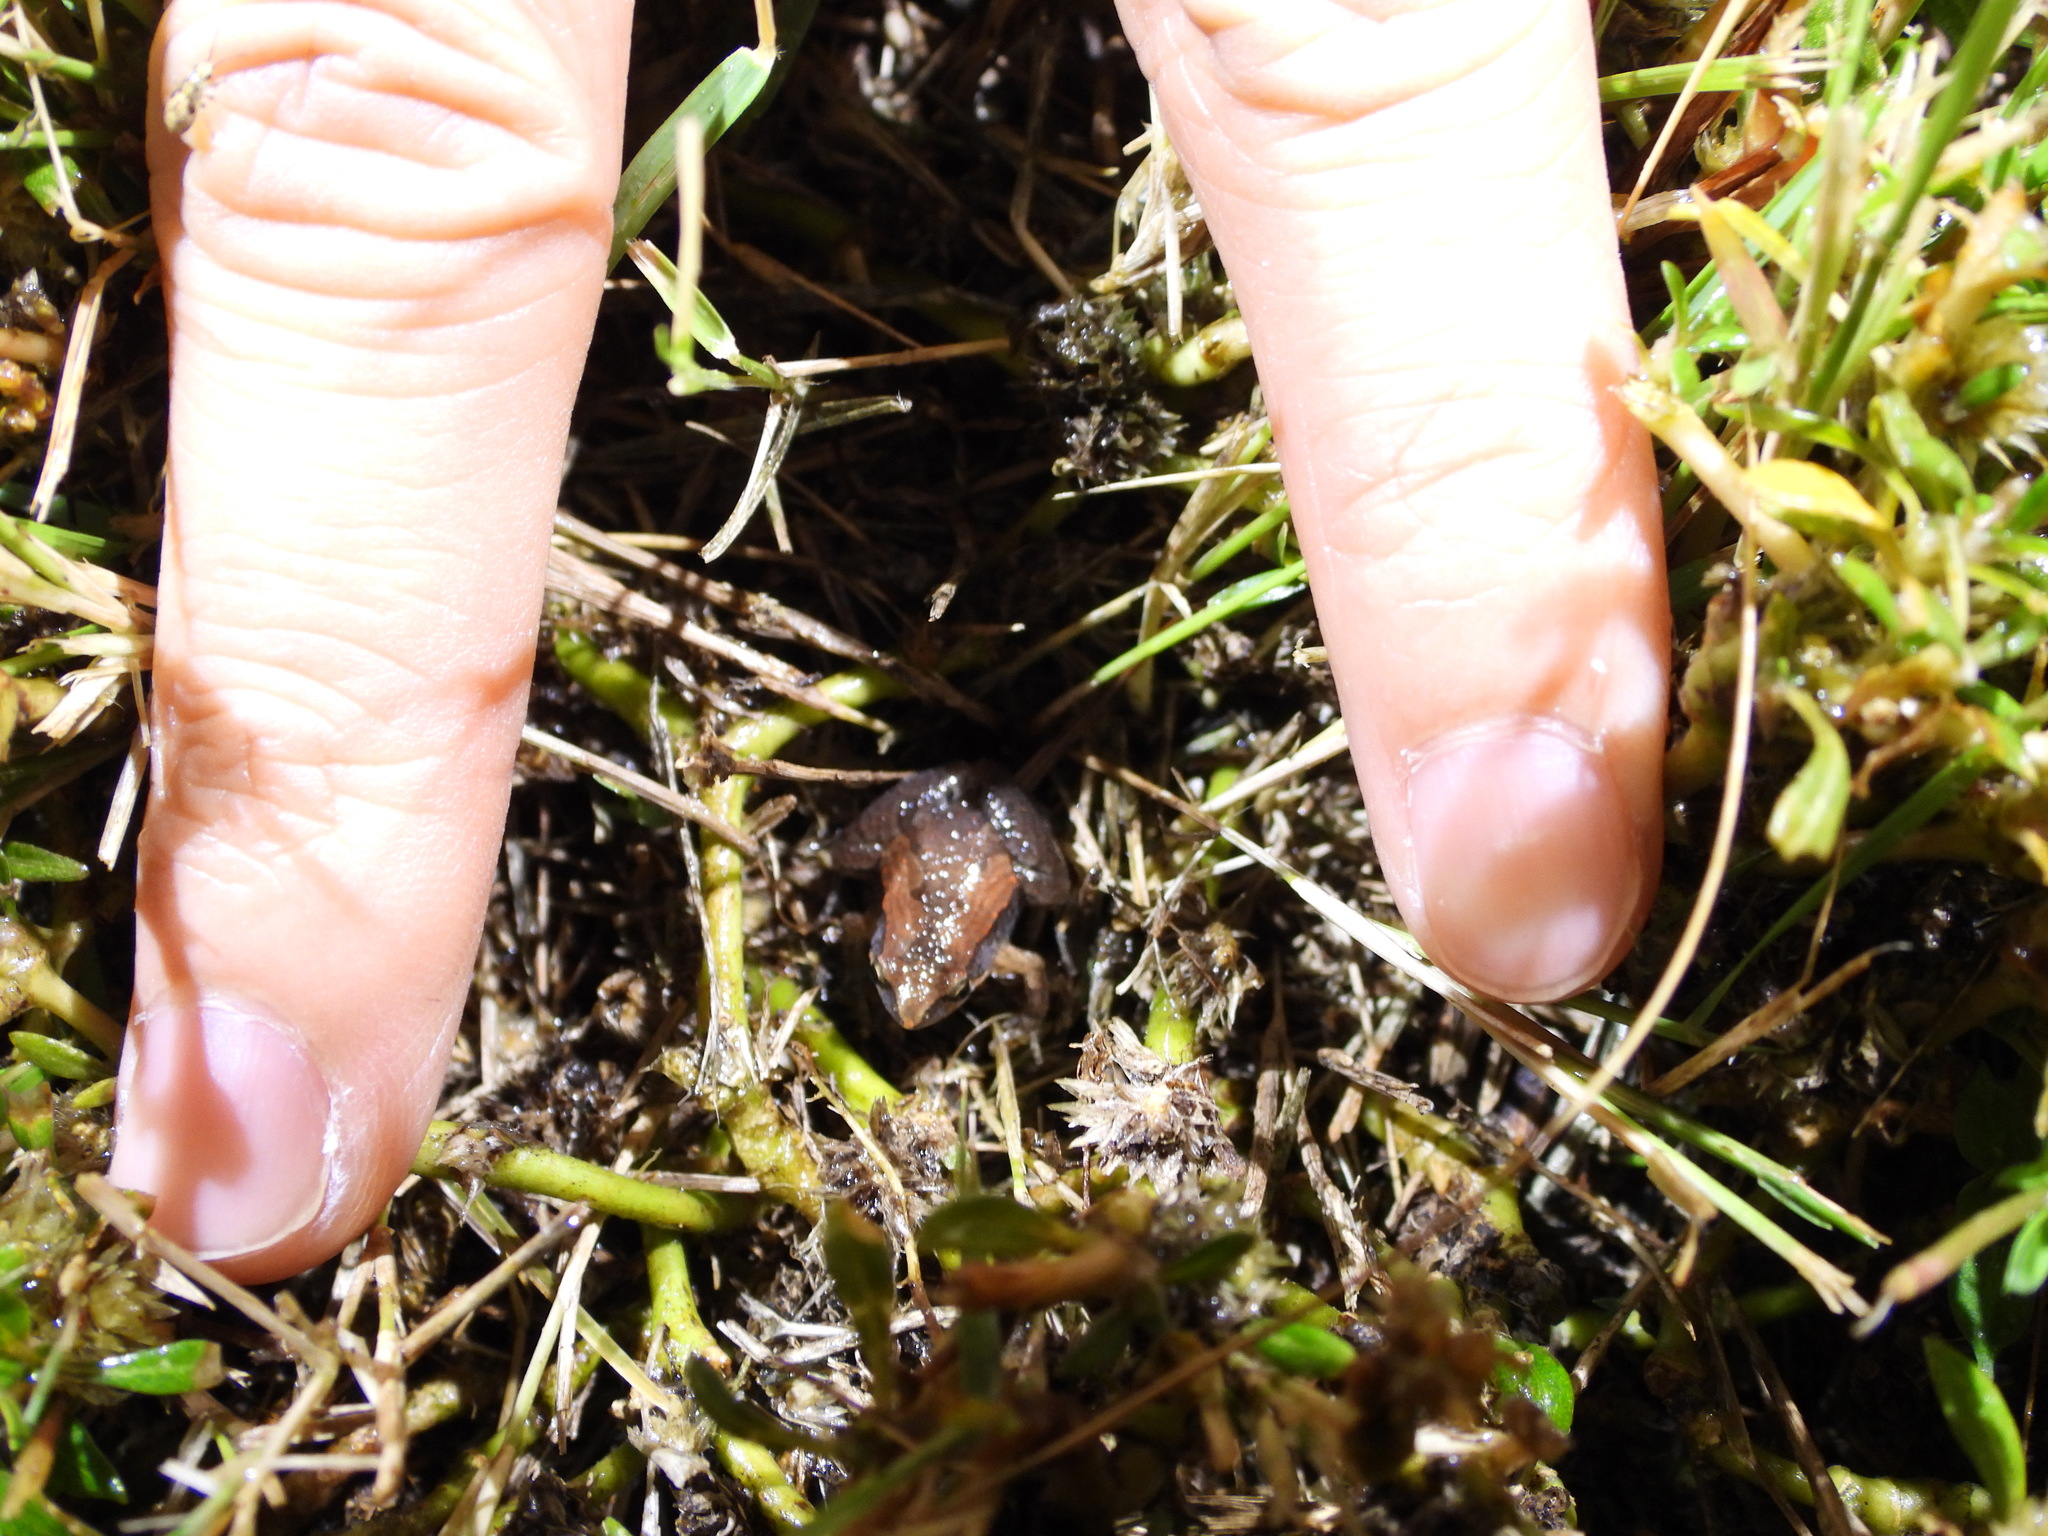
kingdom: Animalia
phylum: Chordata
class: Amphibia
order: Anura
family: Microhylidae
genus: Microhyla
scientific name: Microhyla fissipes
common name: Ornate narrow-mouthed frog
